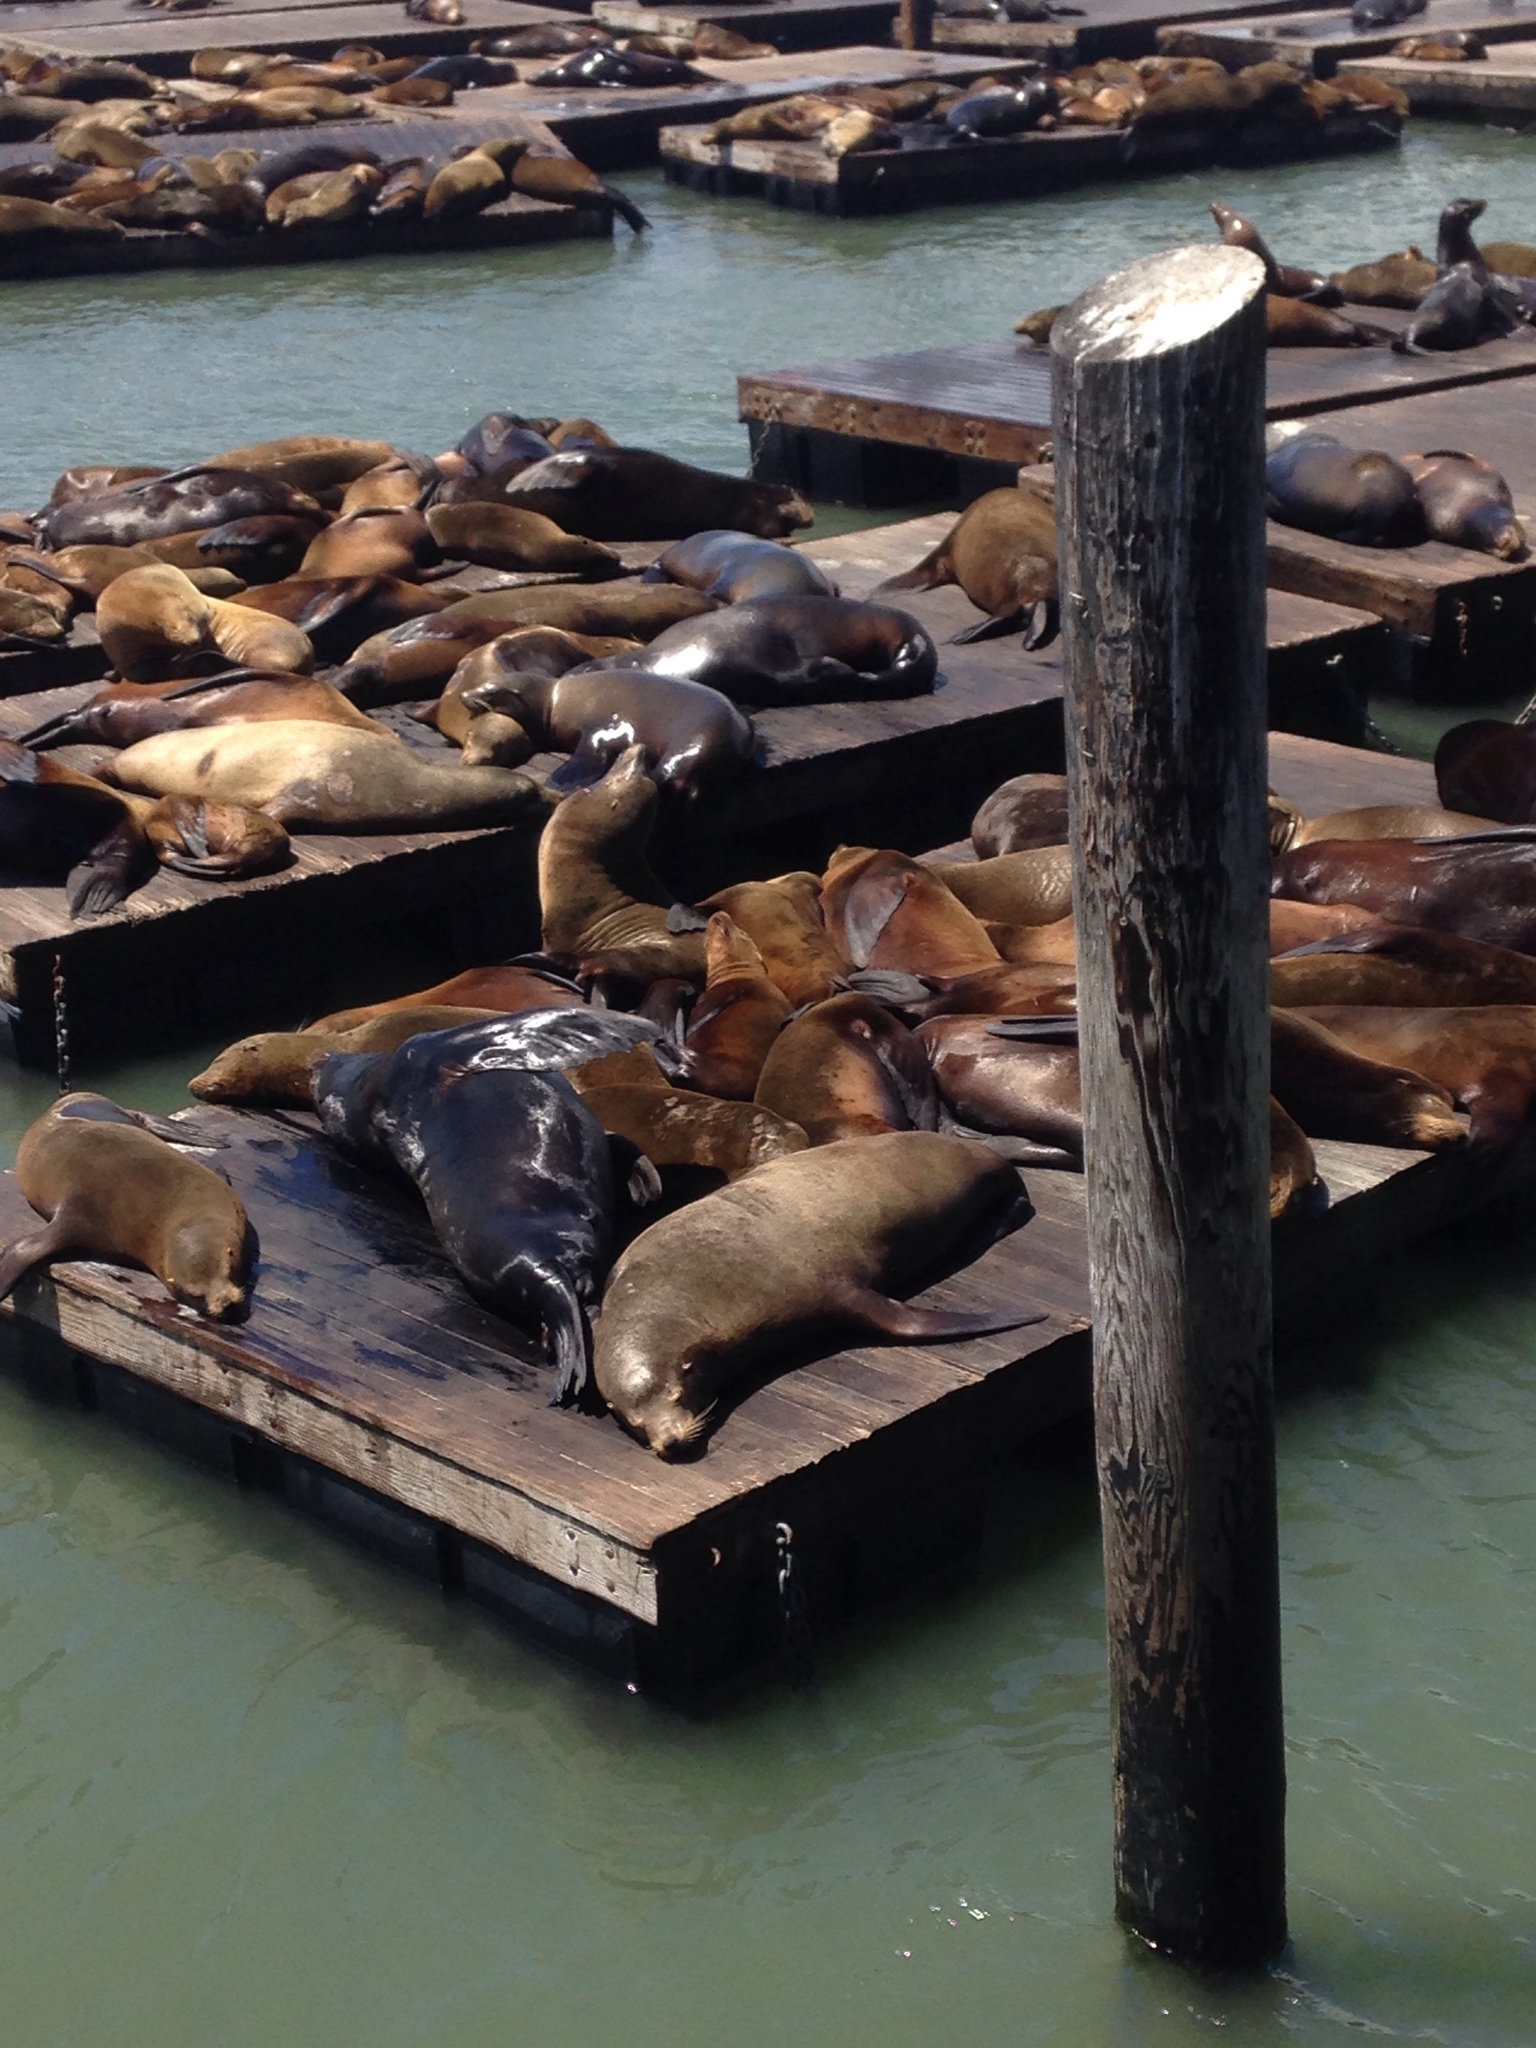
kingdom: Animalia
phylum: Chordata
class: Mammalia
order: Carnivora
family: Otariidae
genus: Zalophus
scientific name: Zalophus californianus
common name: California sea lion
